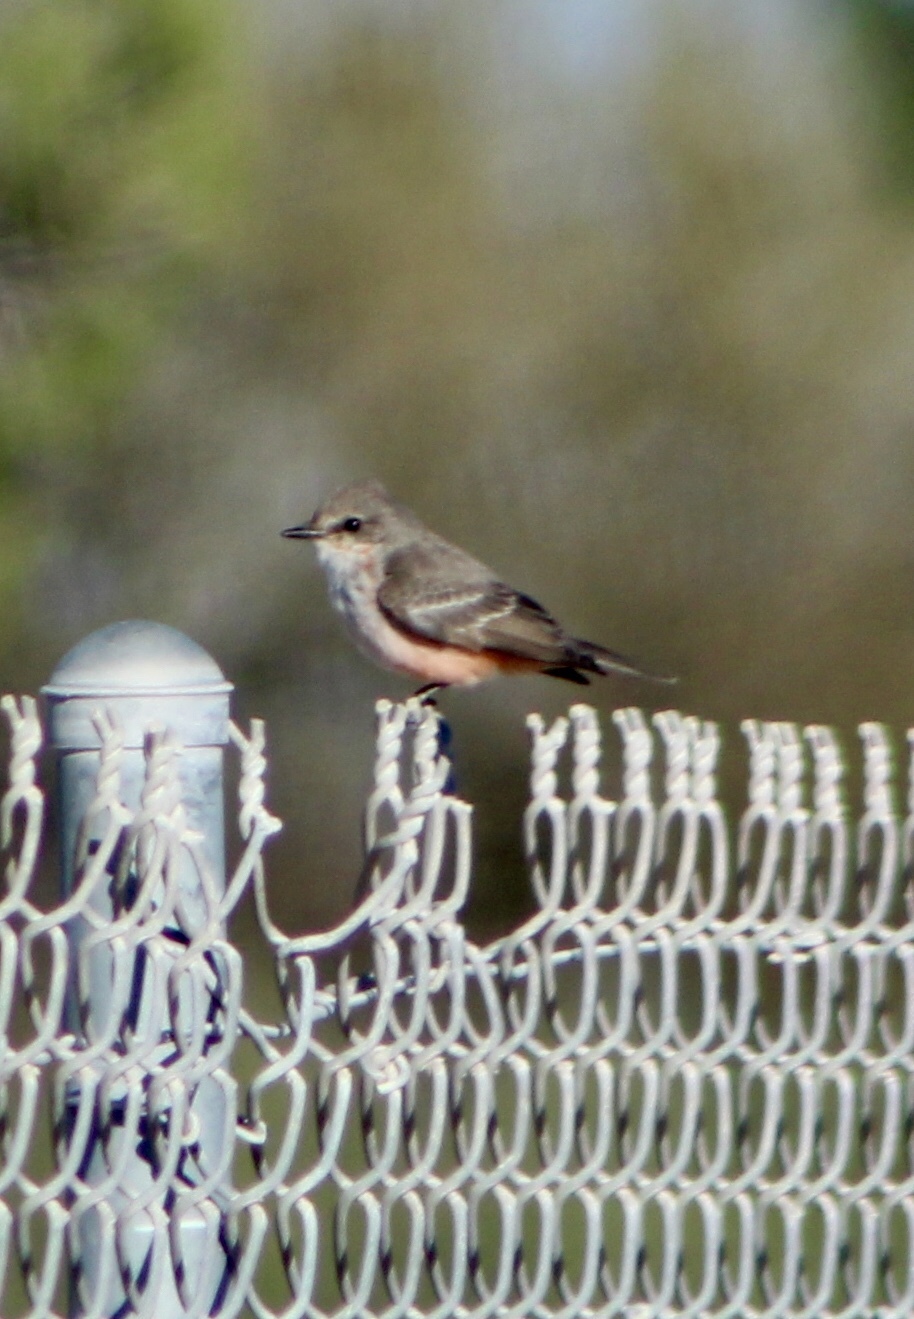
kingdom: Animalia
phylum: Chordata
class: Aves
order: Passeriformes
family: Tyrannidae
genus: Pyrocephalus
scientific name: Pyrocephalus rubinus
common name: Vermilion flycatcher
